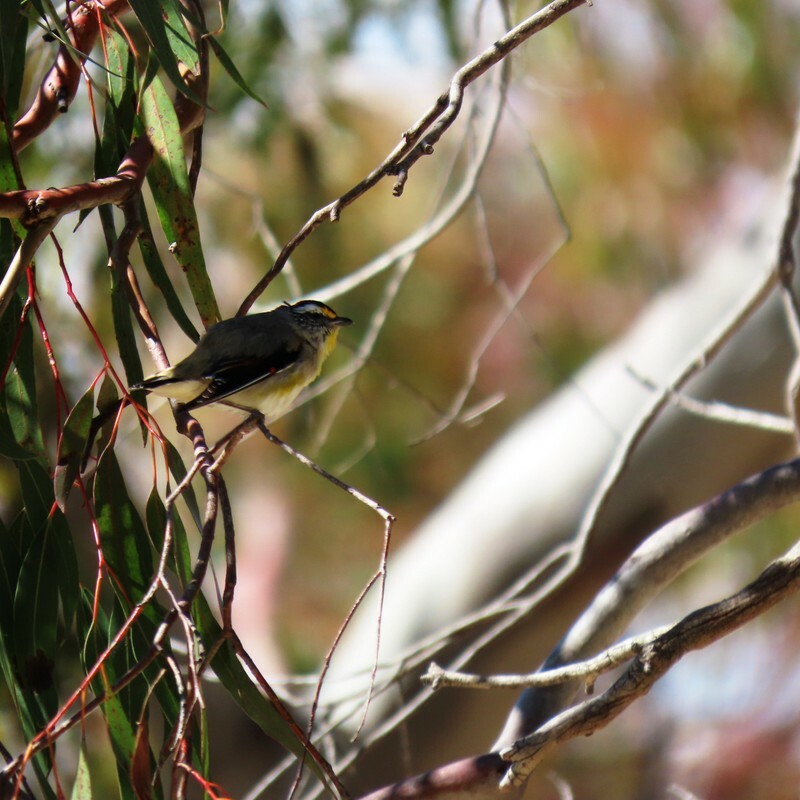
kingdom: Animalia
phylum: Chordata
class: Aves
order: Passeriformes
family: Pardalotidae
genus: Pardalotus
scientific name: Pardalotus striatus
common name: Striated pardalote
